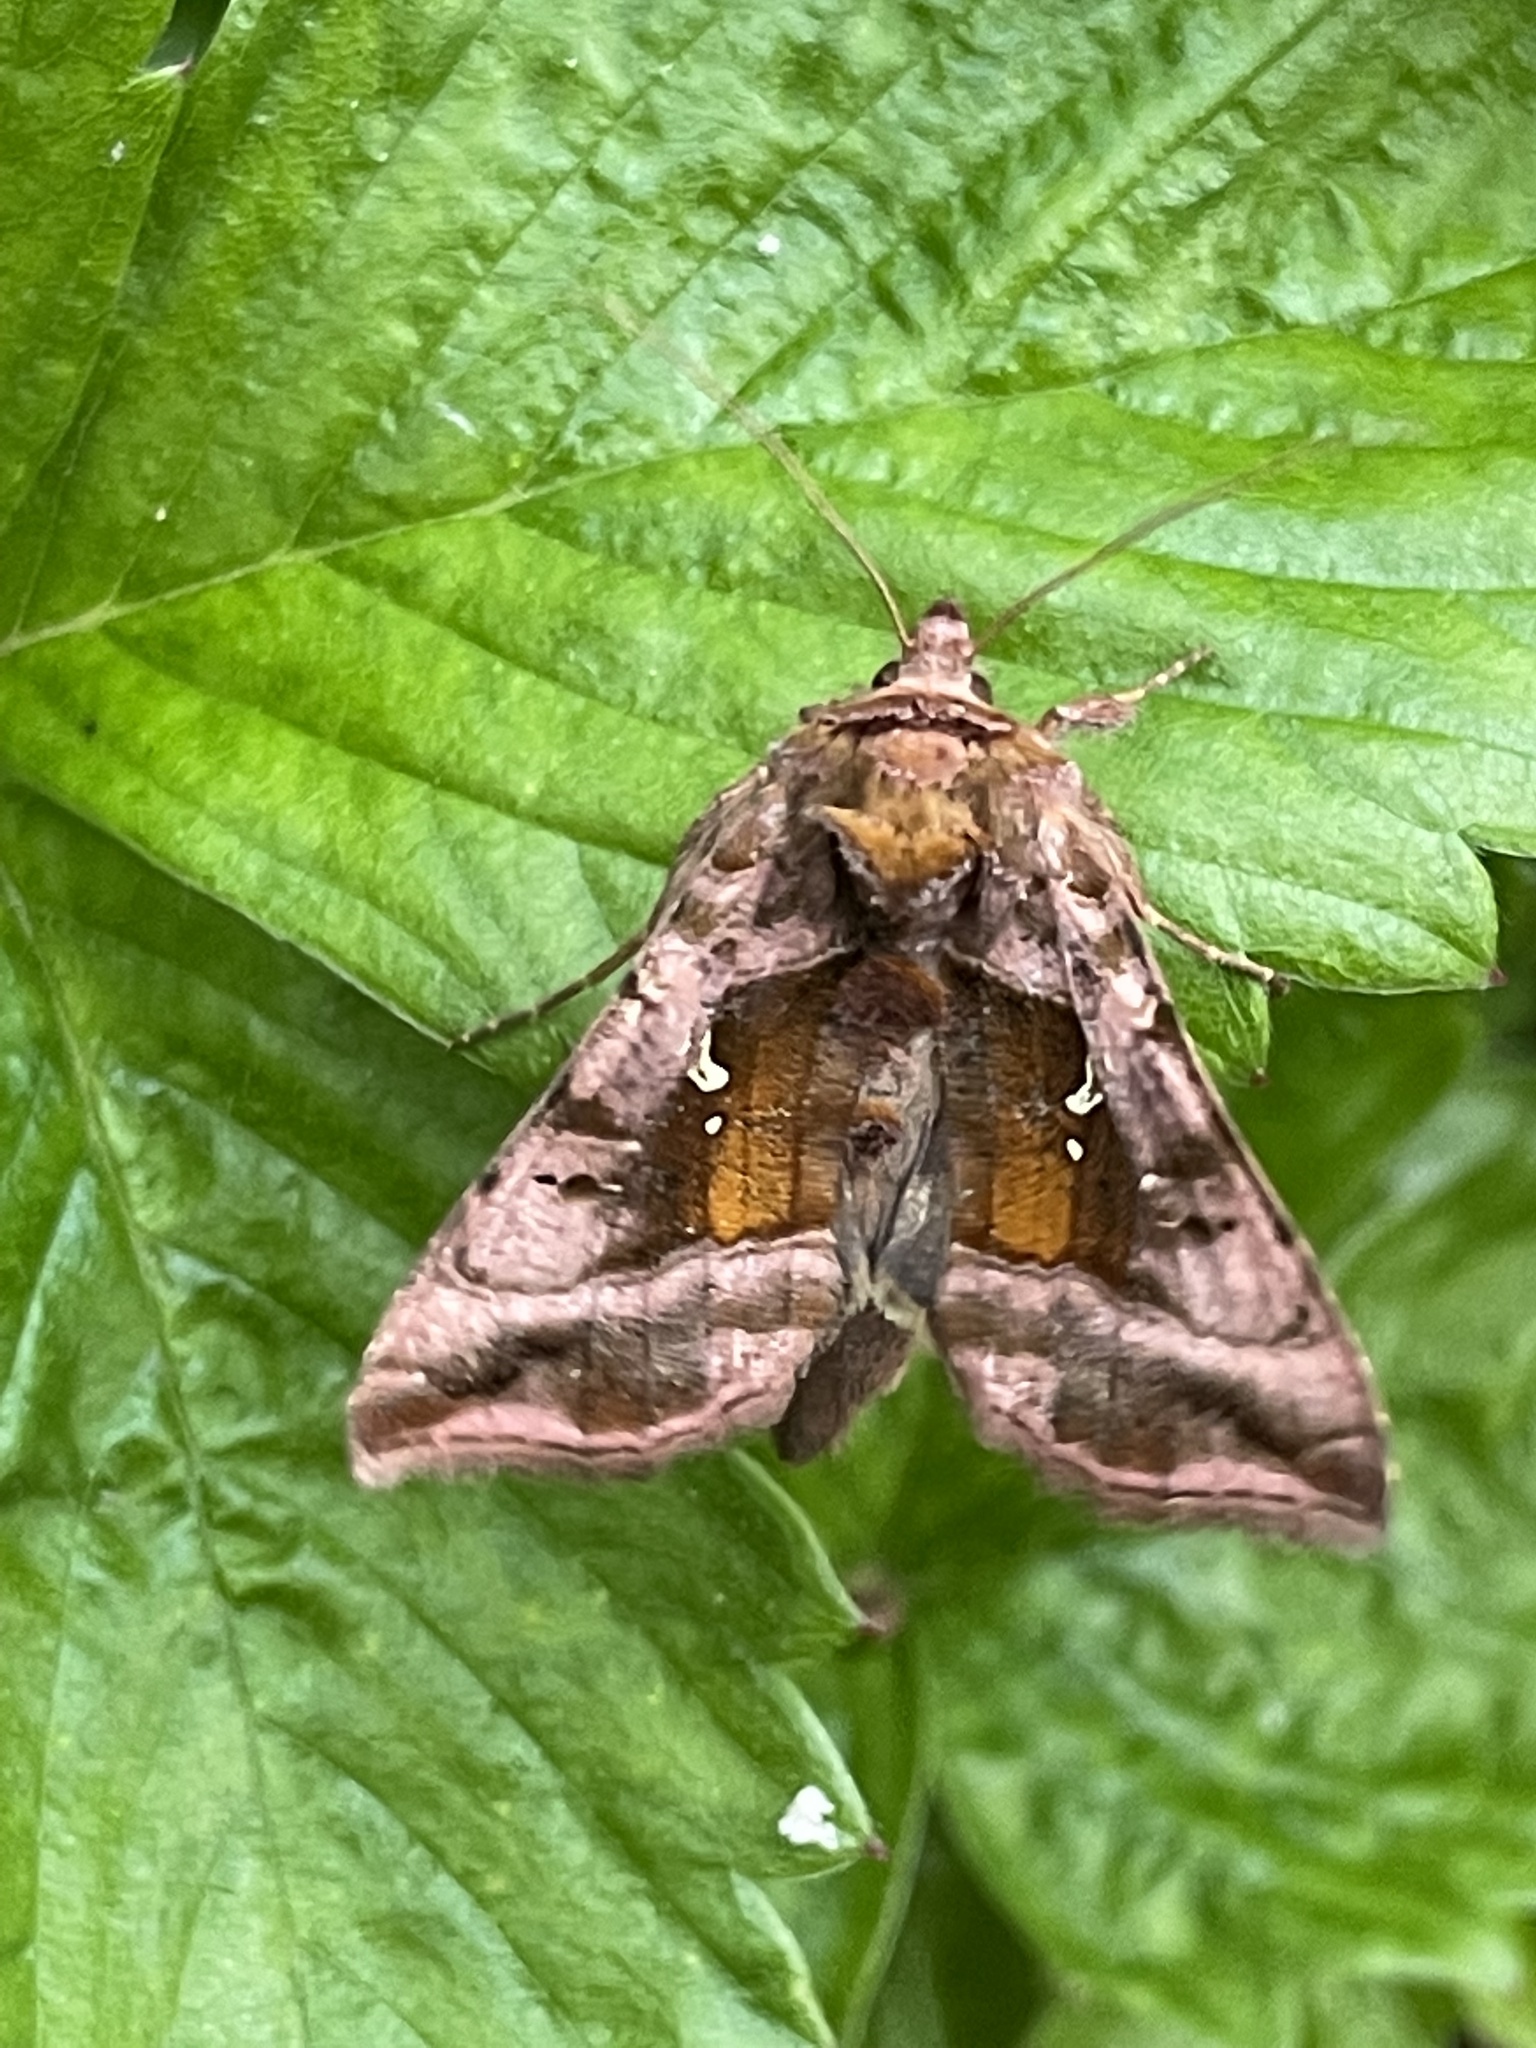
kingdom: Animalia
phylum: Arthropoda
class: Insecta
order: Lepidoptera
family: Noctuidae
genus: Autographa
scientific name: Autographa jota
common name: Plain golden y
